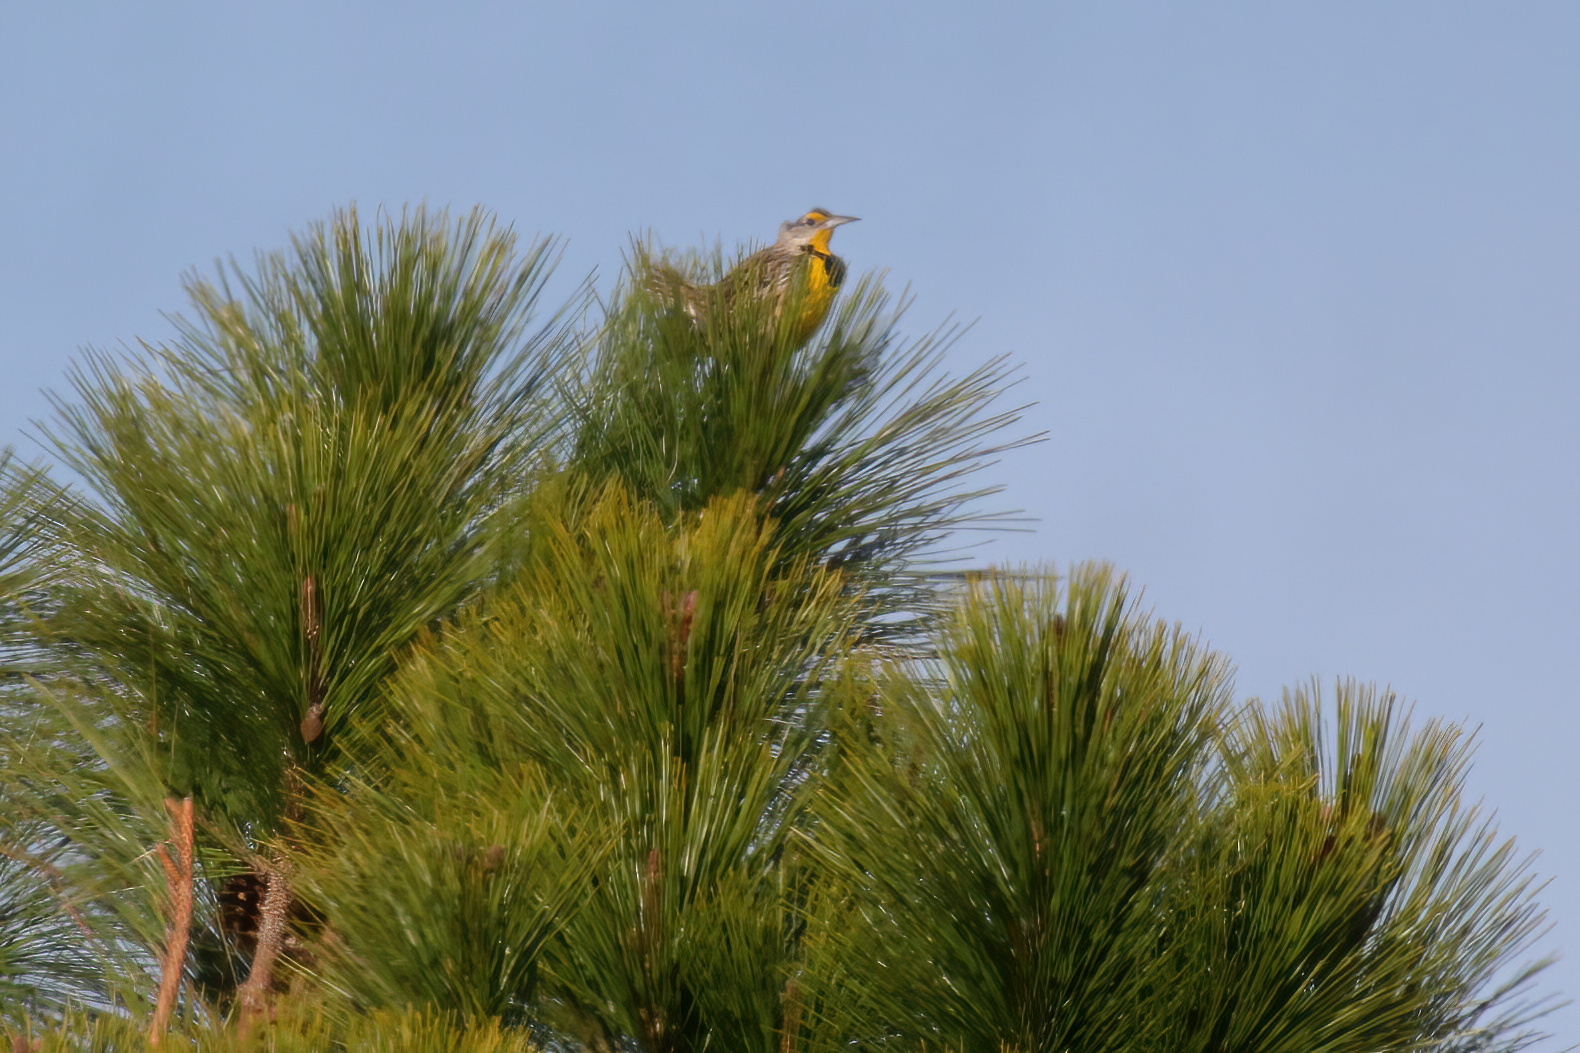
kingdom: Animalia
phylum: Chordata
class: Aves
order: Passeriformes
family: Icteridae
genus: Sturnella
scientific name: Sturnella magna
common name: Eastern meadowlark
